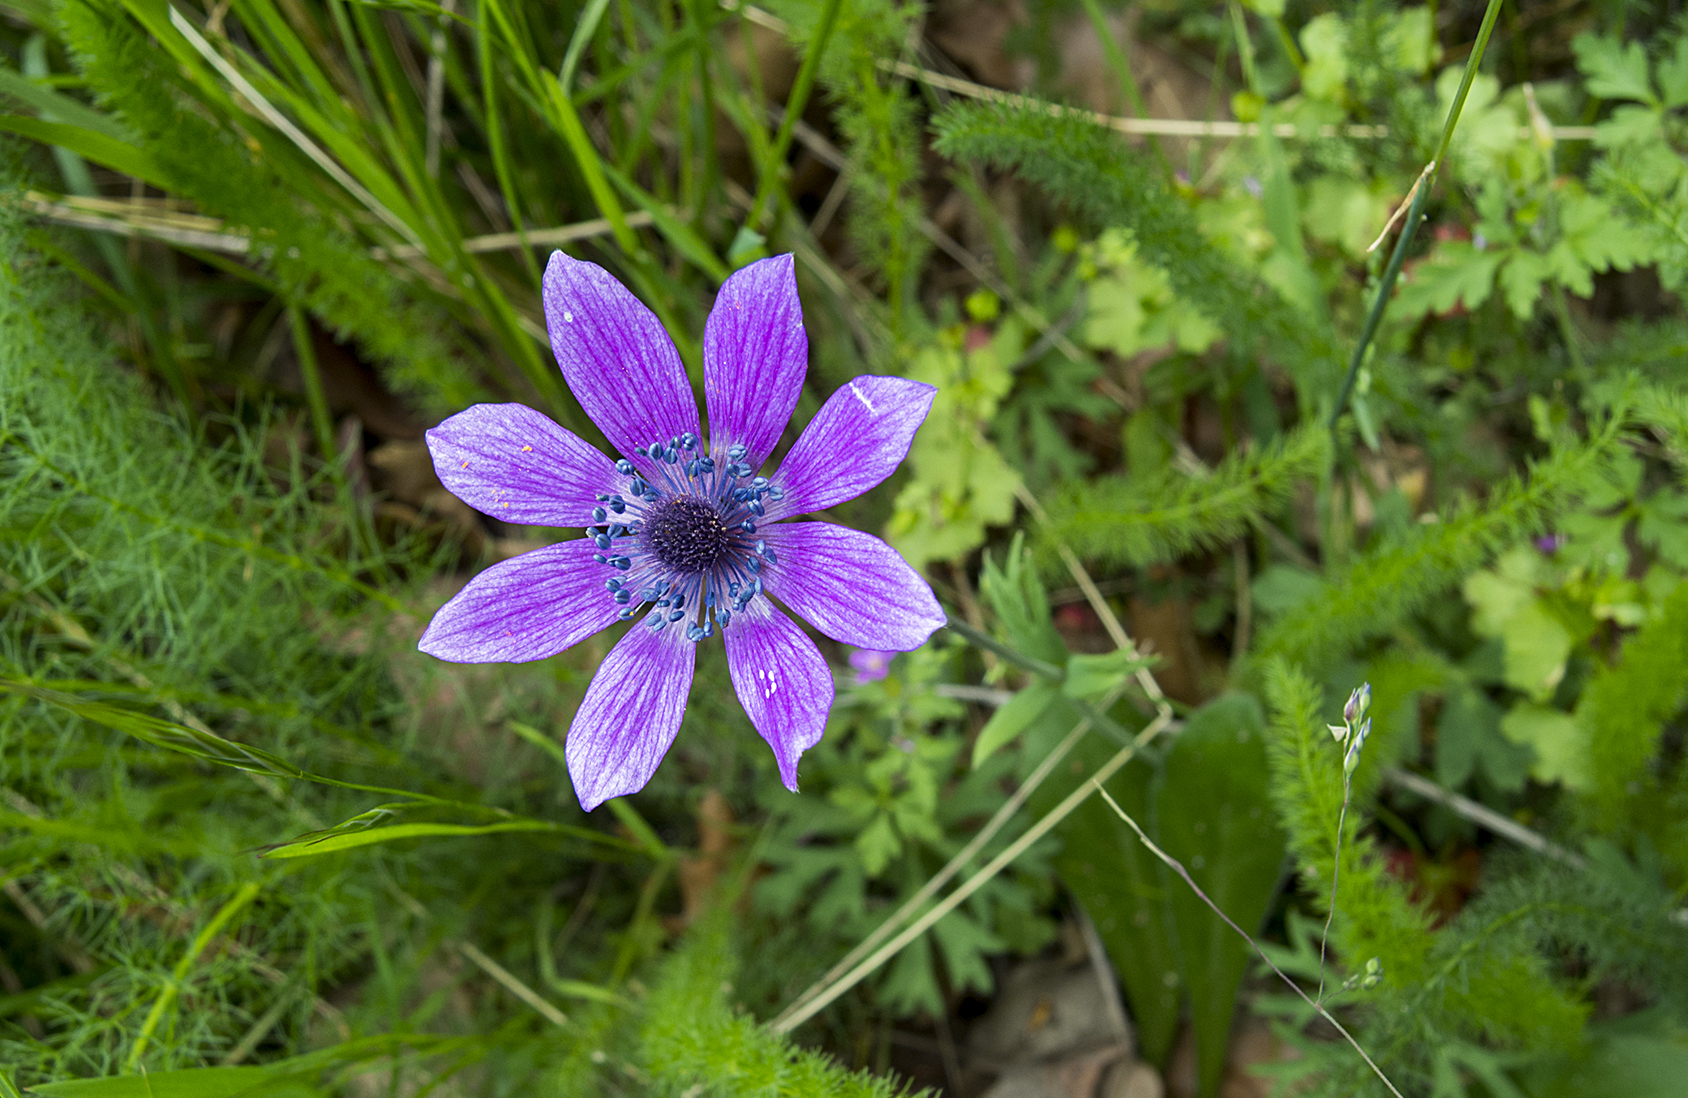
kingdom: Plantae
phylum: Tracheophyta
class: Magnoliopsida
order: Ranunculales
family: Ranunculaceae
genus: Anemone
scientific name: Anemone pavonina
